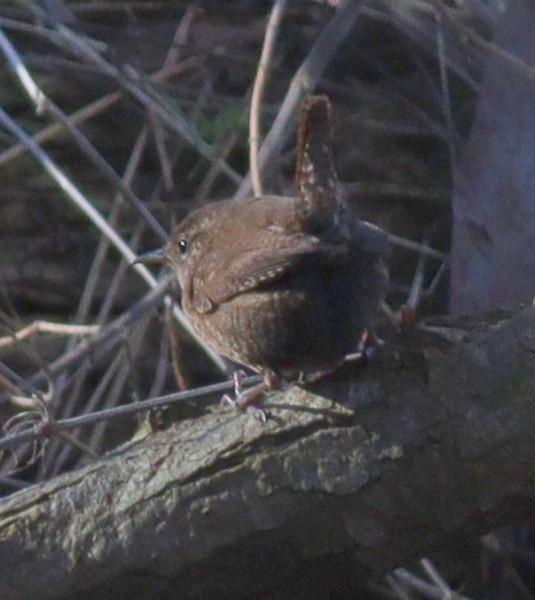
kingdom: Animalia
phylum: Chordata
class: Aves
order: Passeriformes
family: Troglodytidae
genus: Troglodytes
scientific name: Troglodytes troglodytes
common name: Eurasian wren
